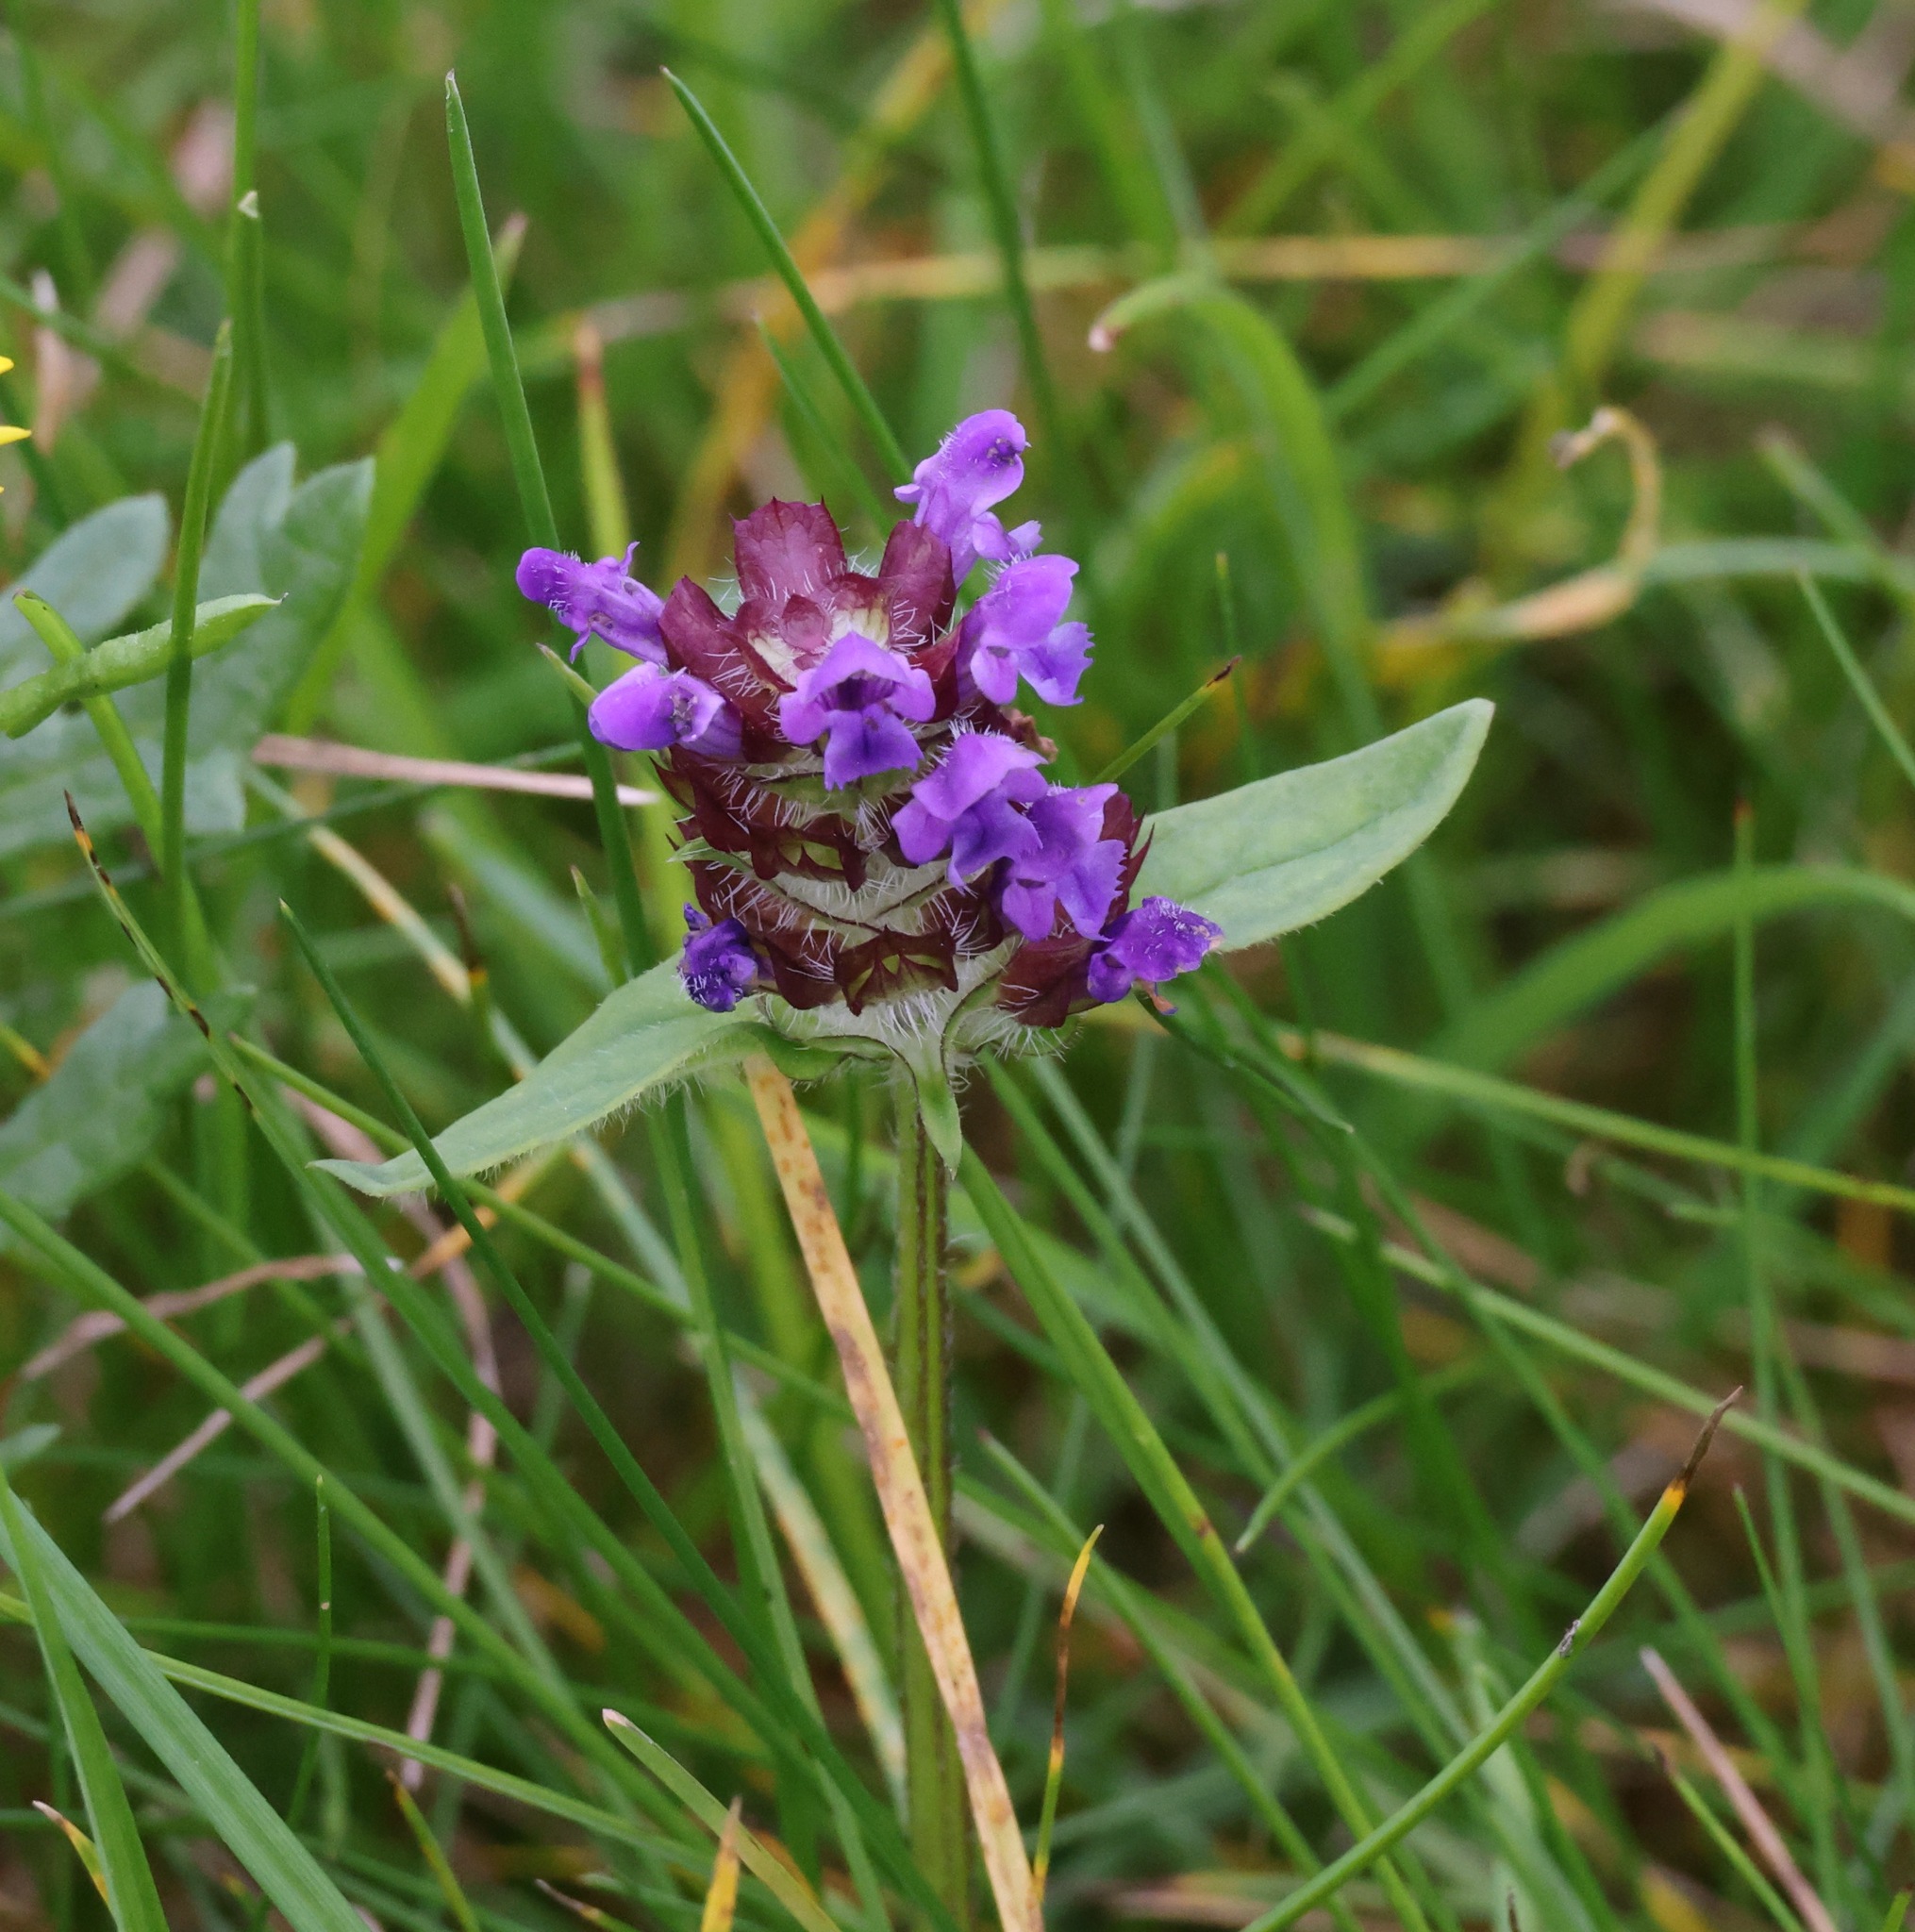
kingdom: Plantae
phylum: Tracheophyta
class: Magnoliopsida
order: Lamiales
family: Lamiaceae
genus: Prunella
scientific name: Prunella vulgaris
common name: Heal-all
